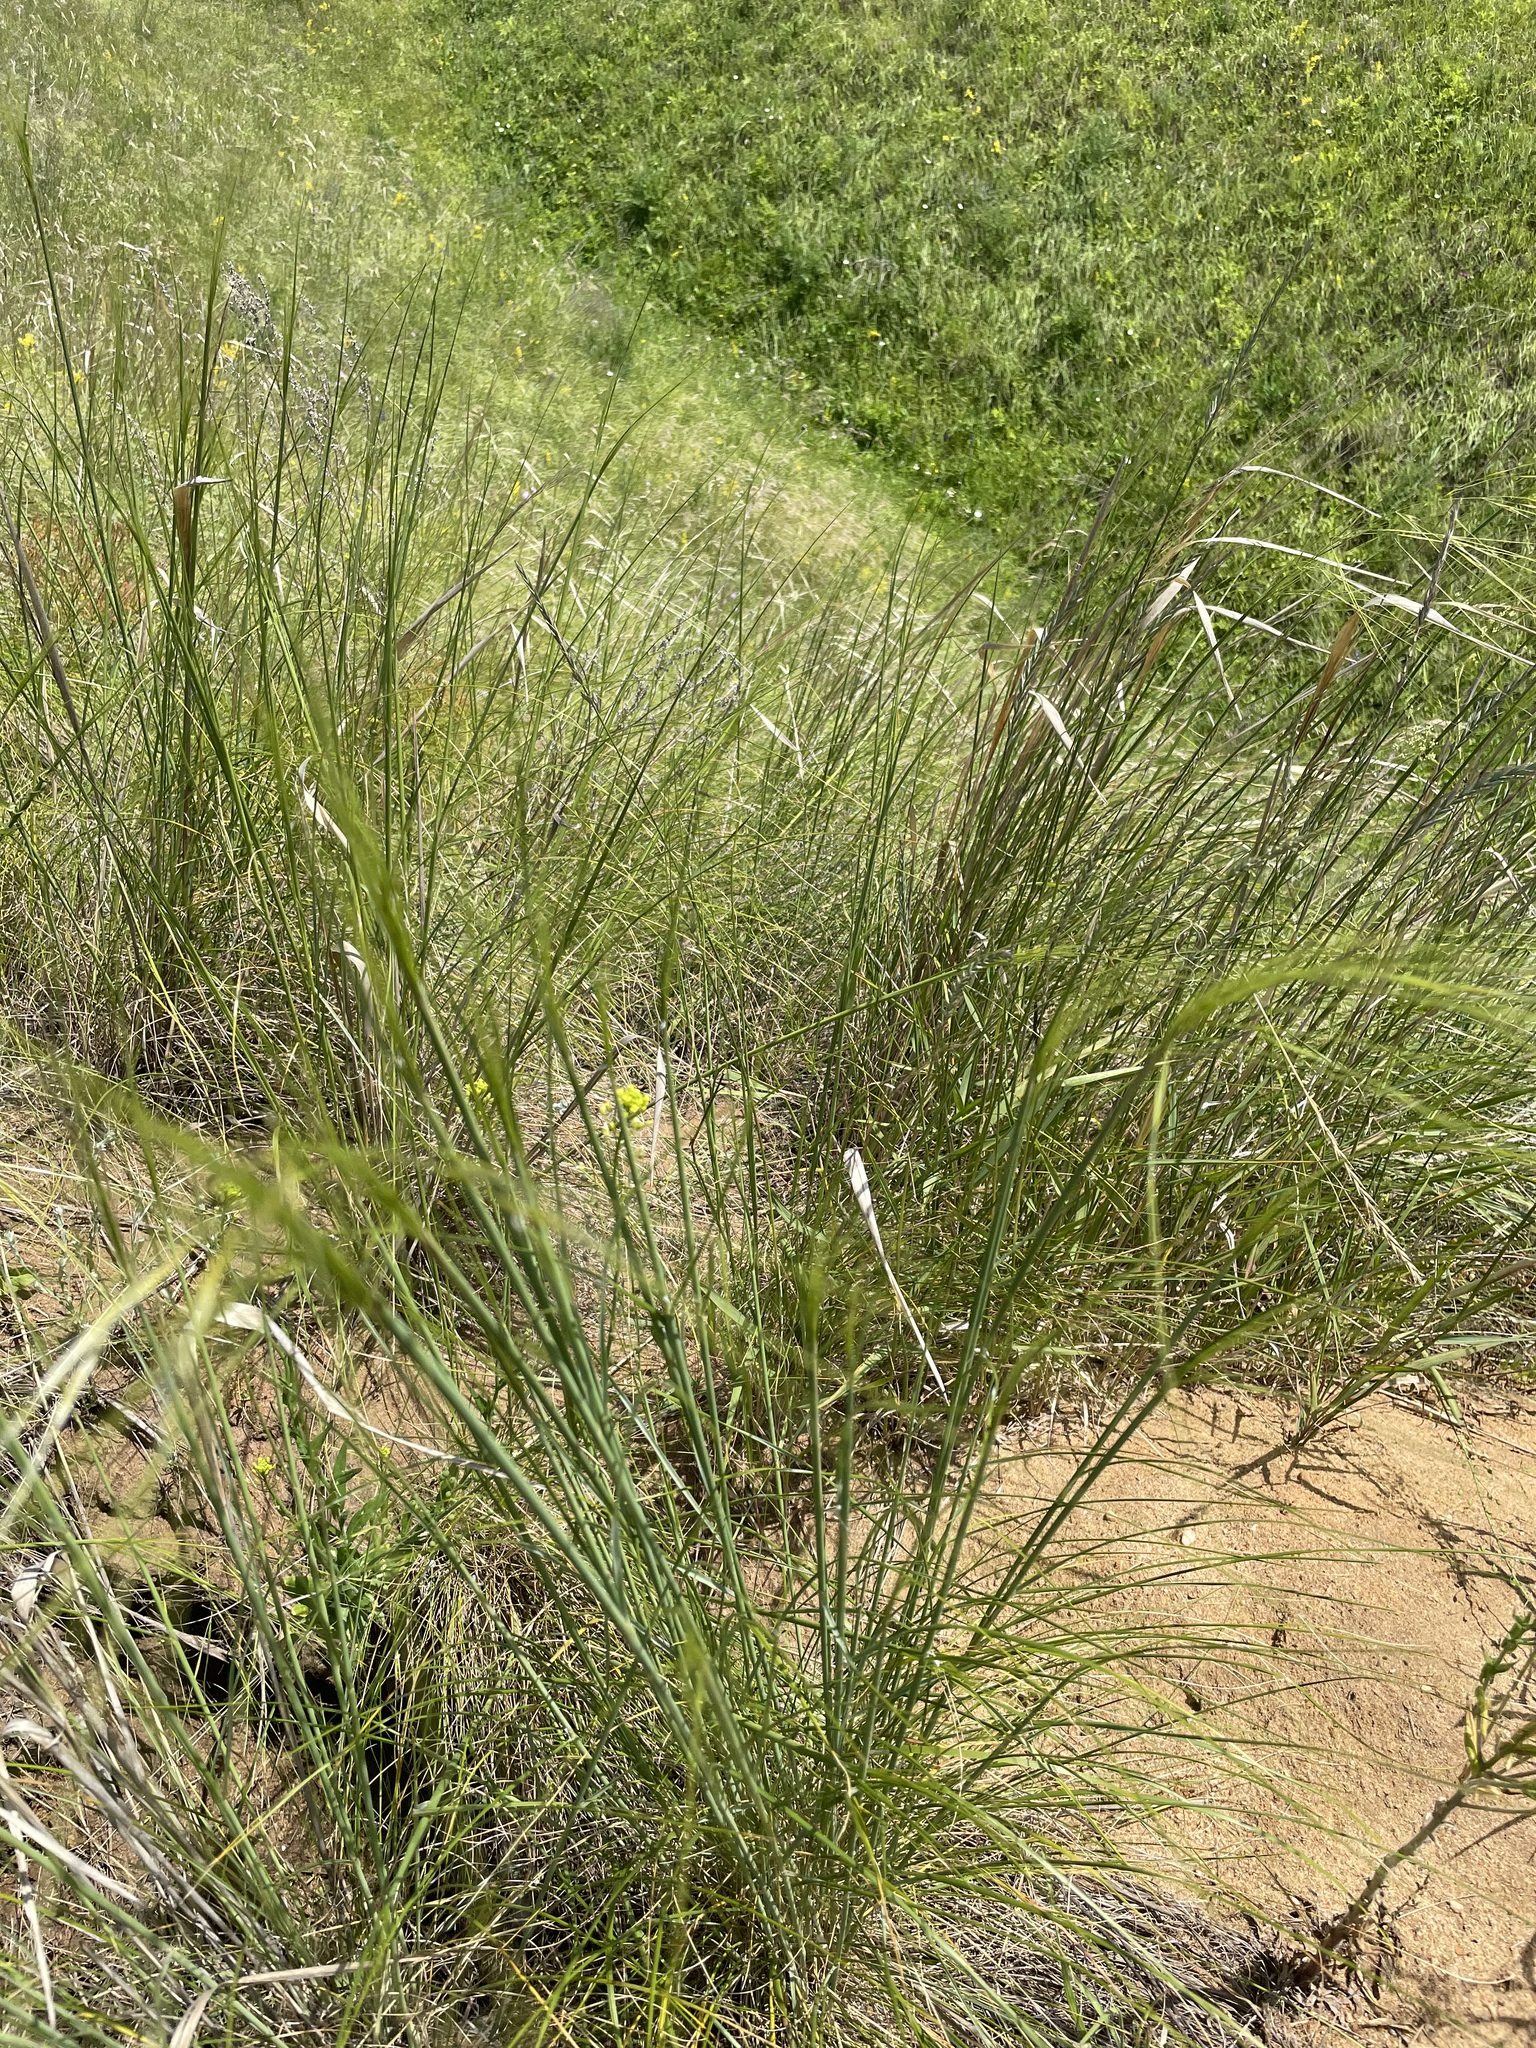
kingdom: Plantae
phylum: Tracheophyta
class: Liliopsida
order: Poales
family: Poaceae
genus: Stipa
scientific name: Stipa capillata
